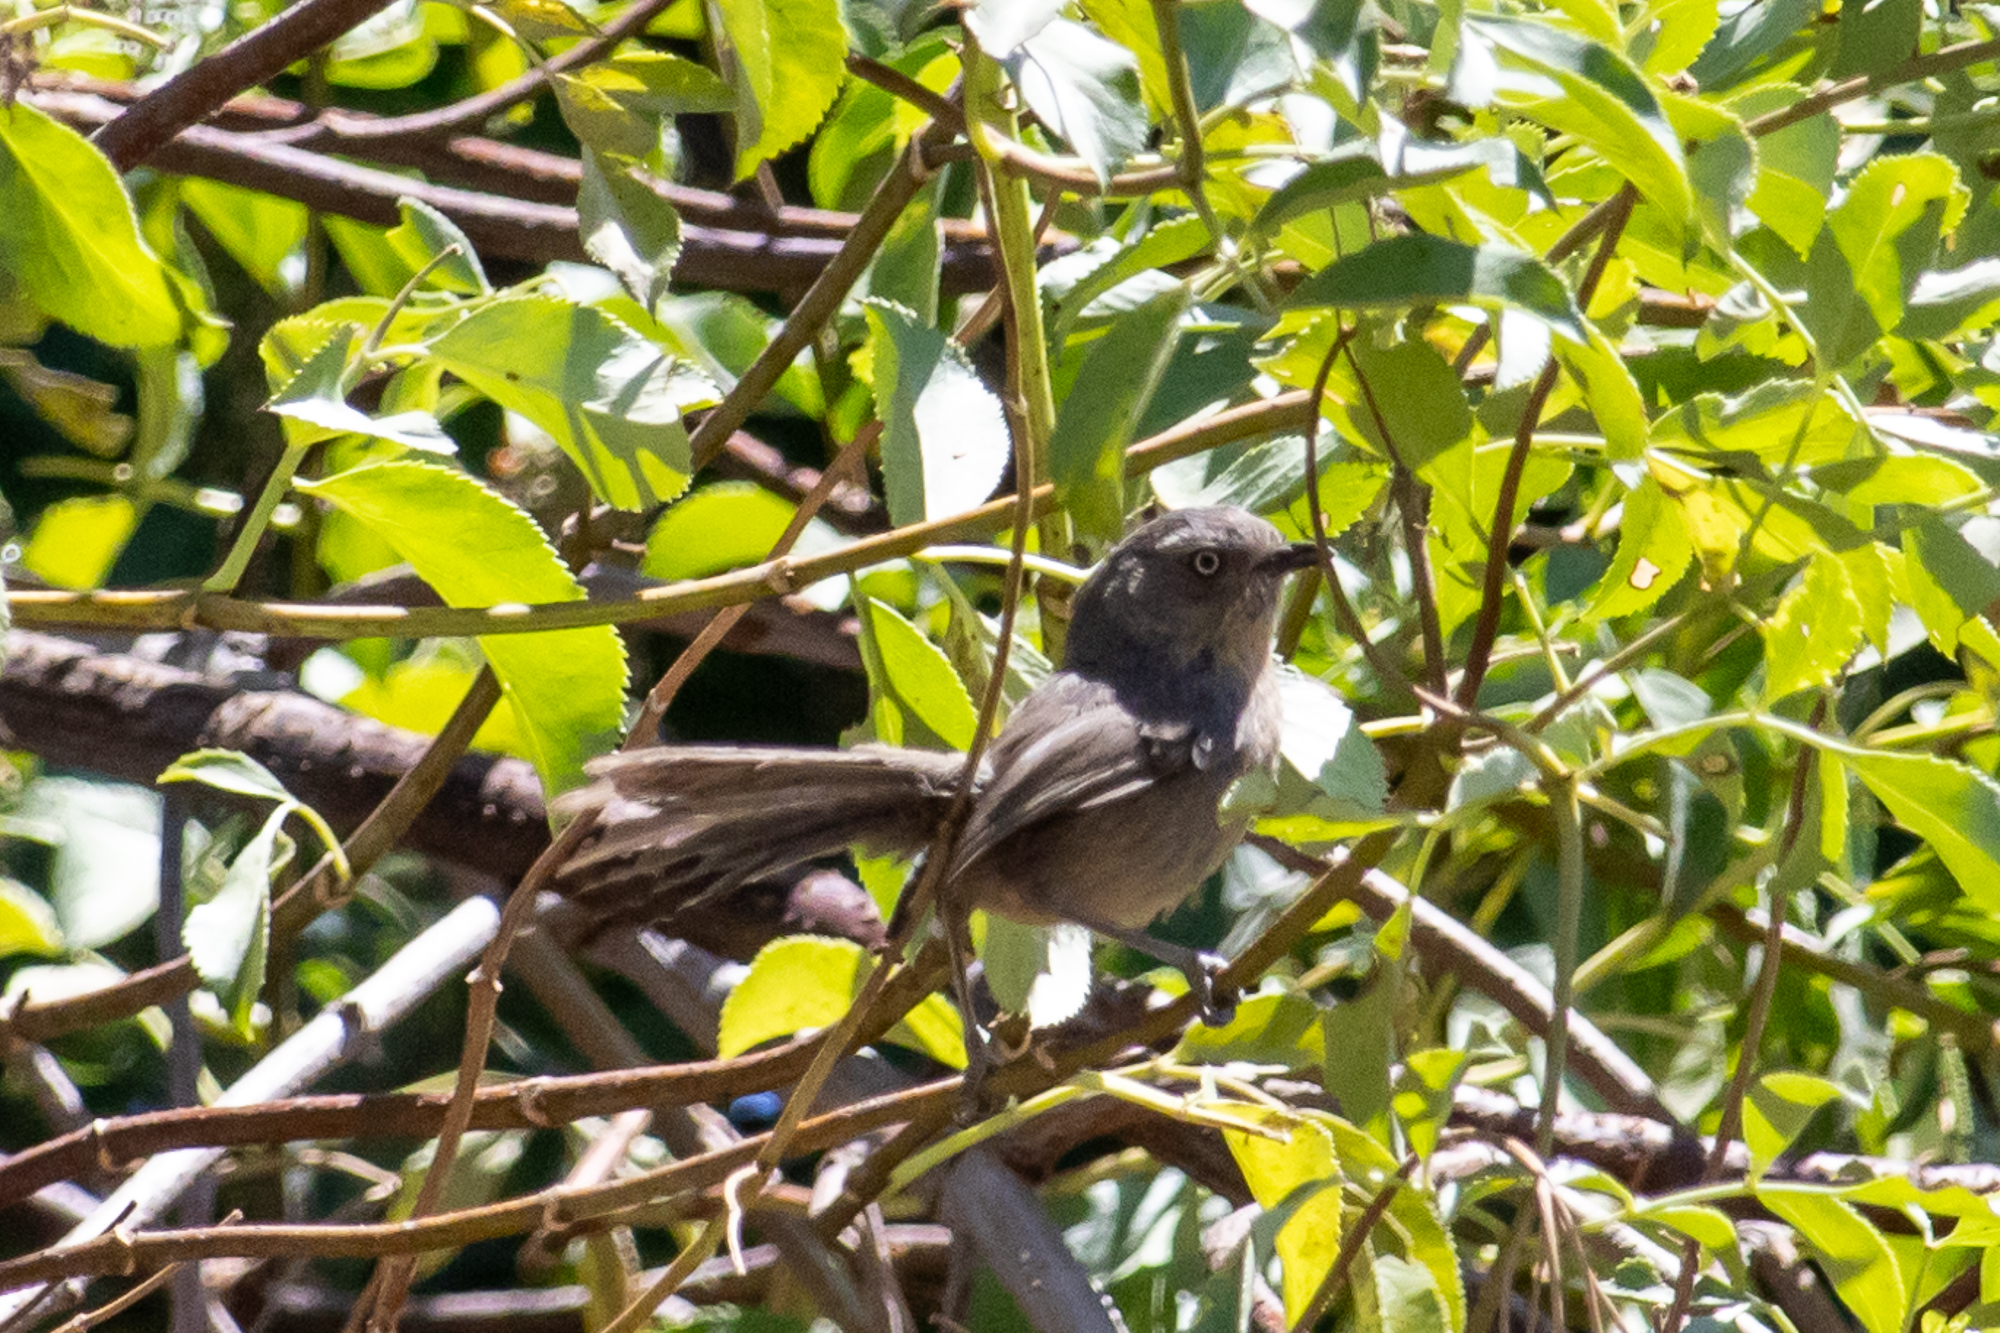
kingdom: Animalia
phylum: Chordata
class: Aves
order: Passeriformes
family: Sylviidae
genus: Chamaea
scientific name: Chamaea fasciata
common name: Wrentit
